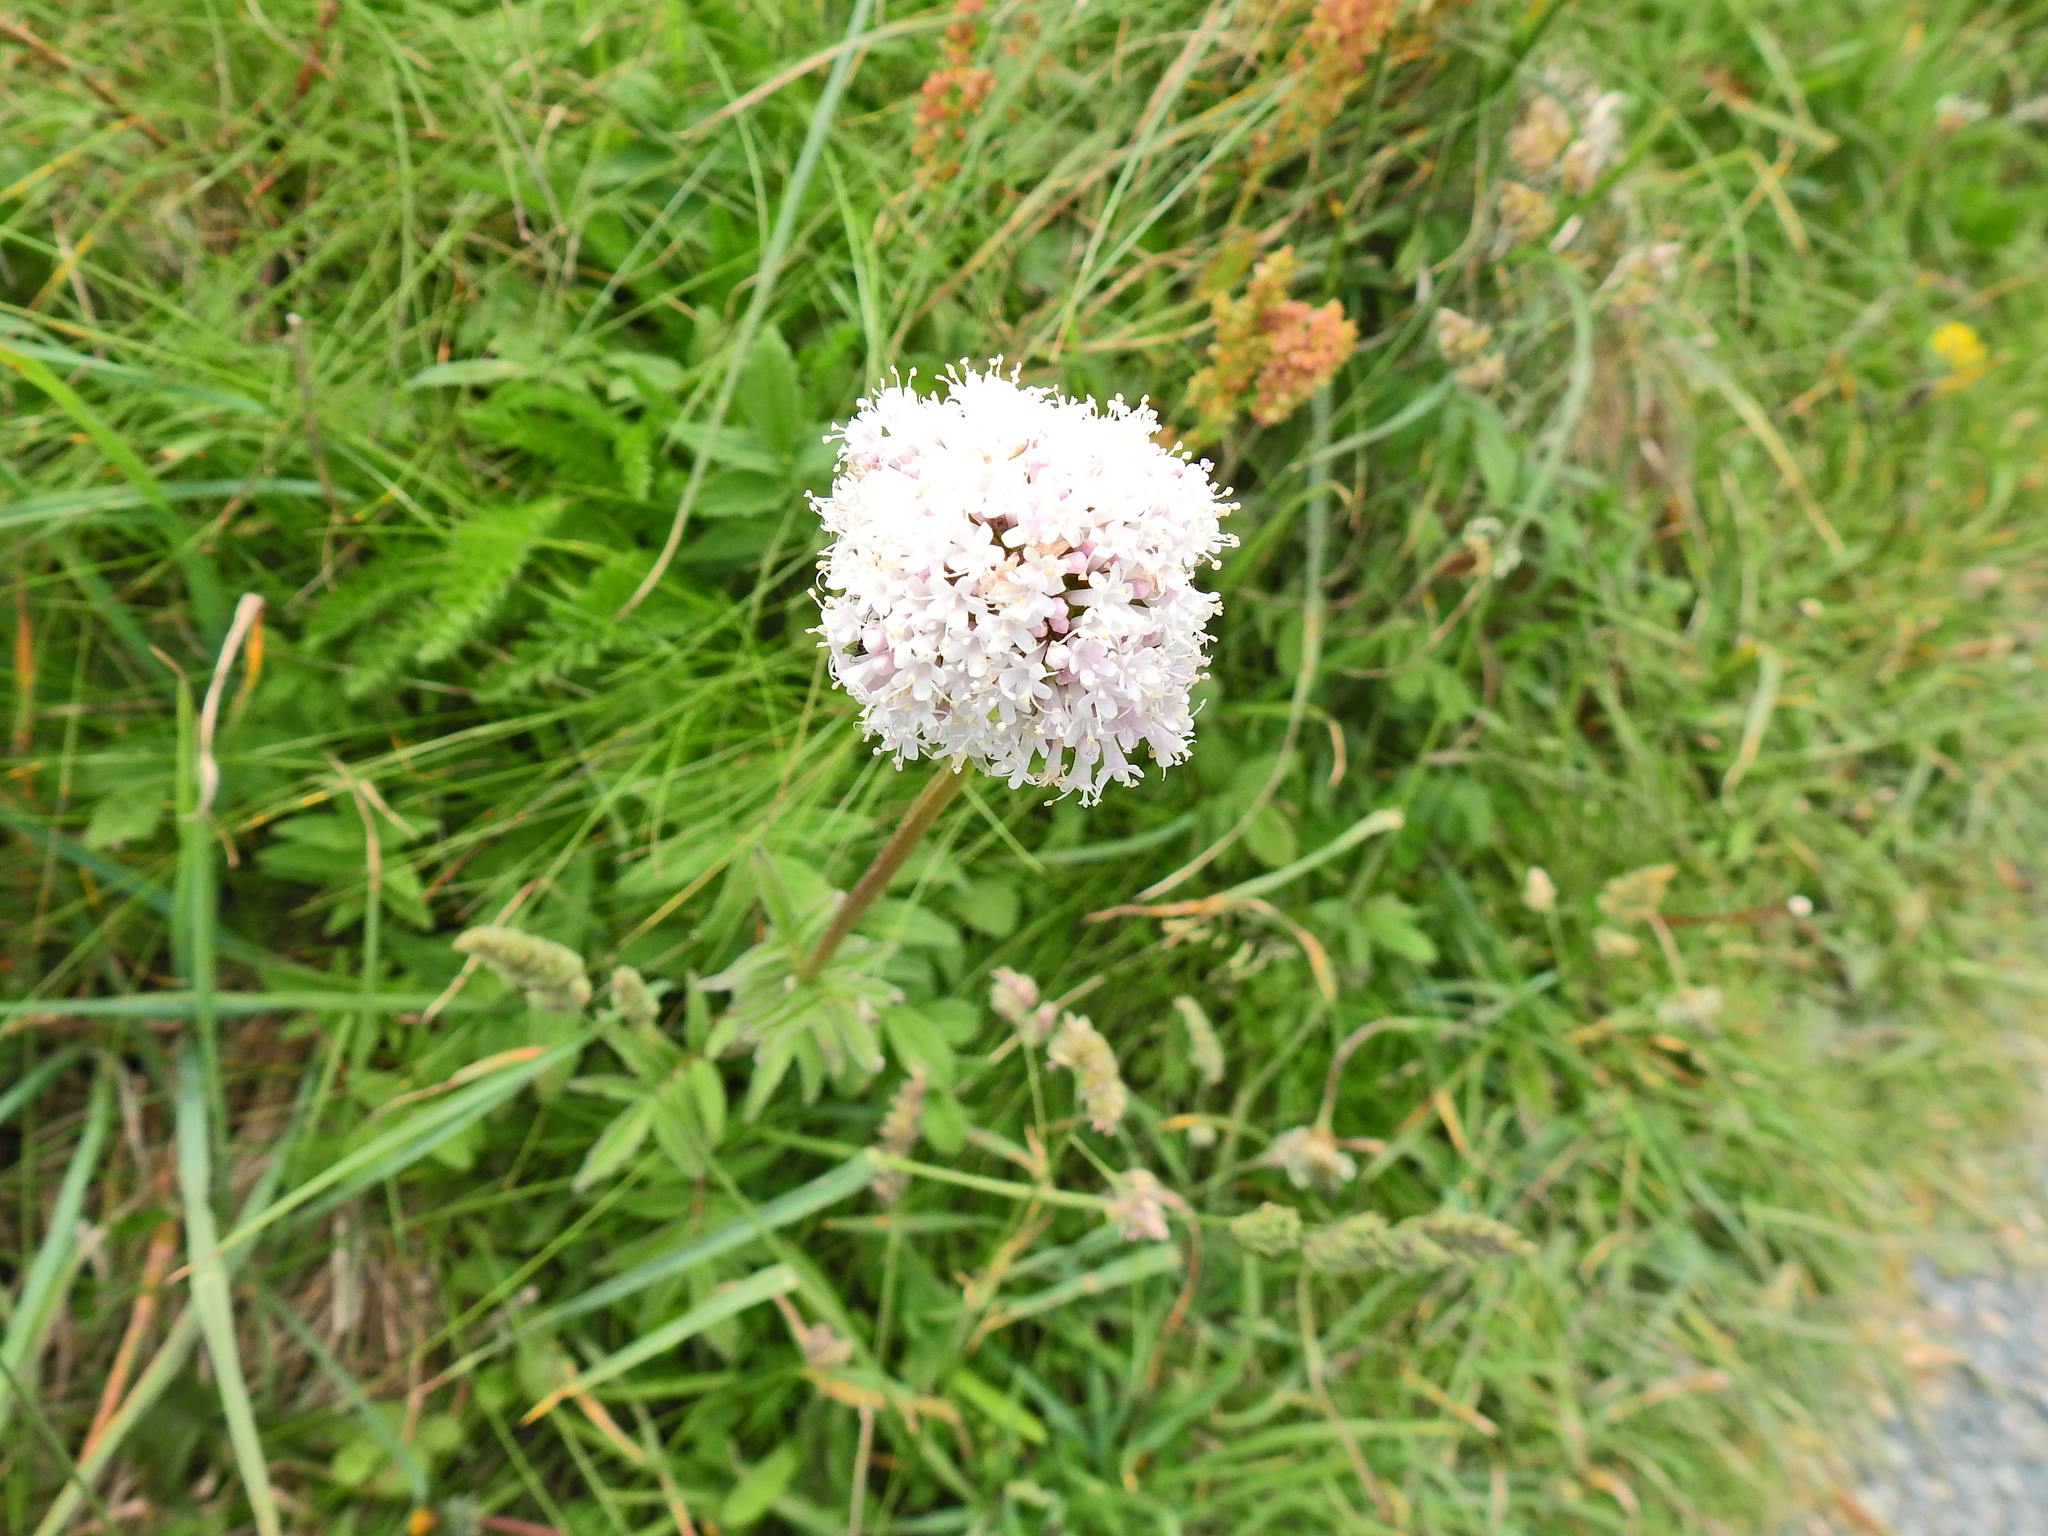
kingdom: Plantae
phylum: Tracheophyta
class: Magnoliopsida
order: Dipsacales
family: Caprifoliaceae
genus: Valeriana
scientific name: Valeriana officinalis
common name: Common valerian
